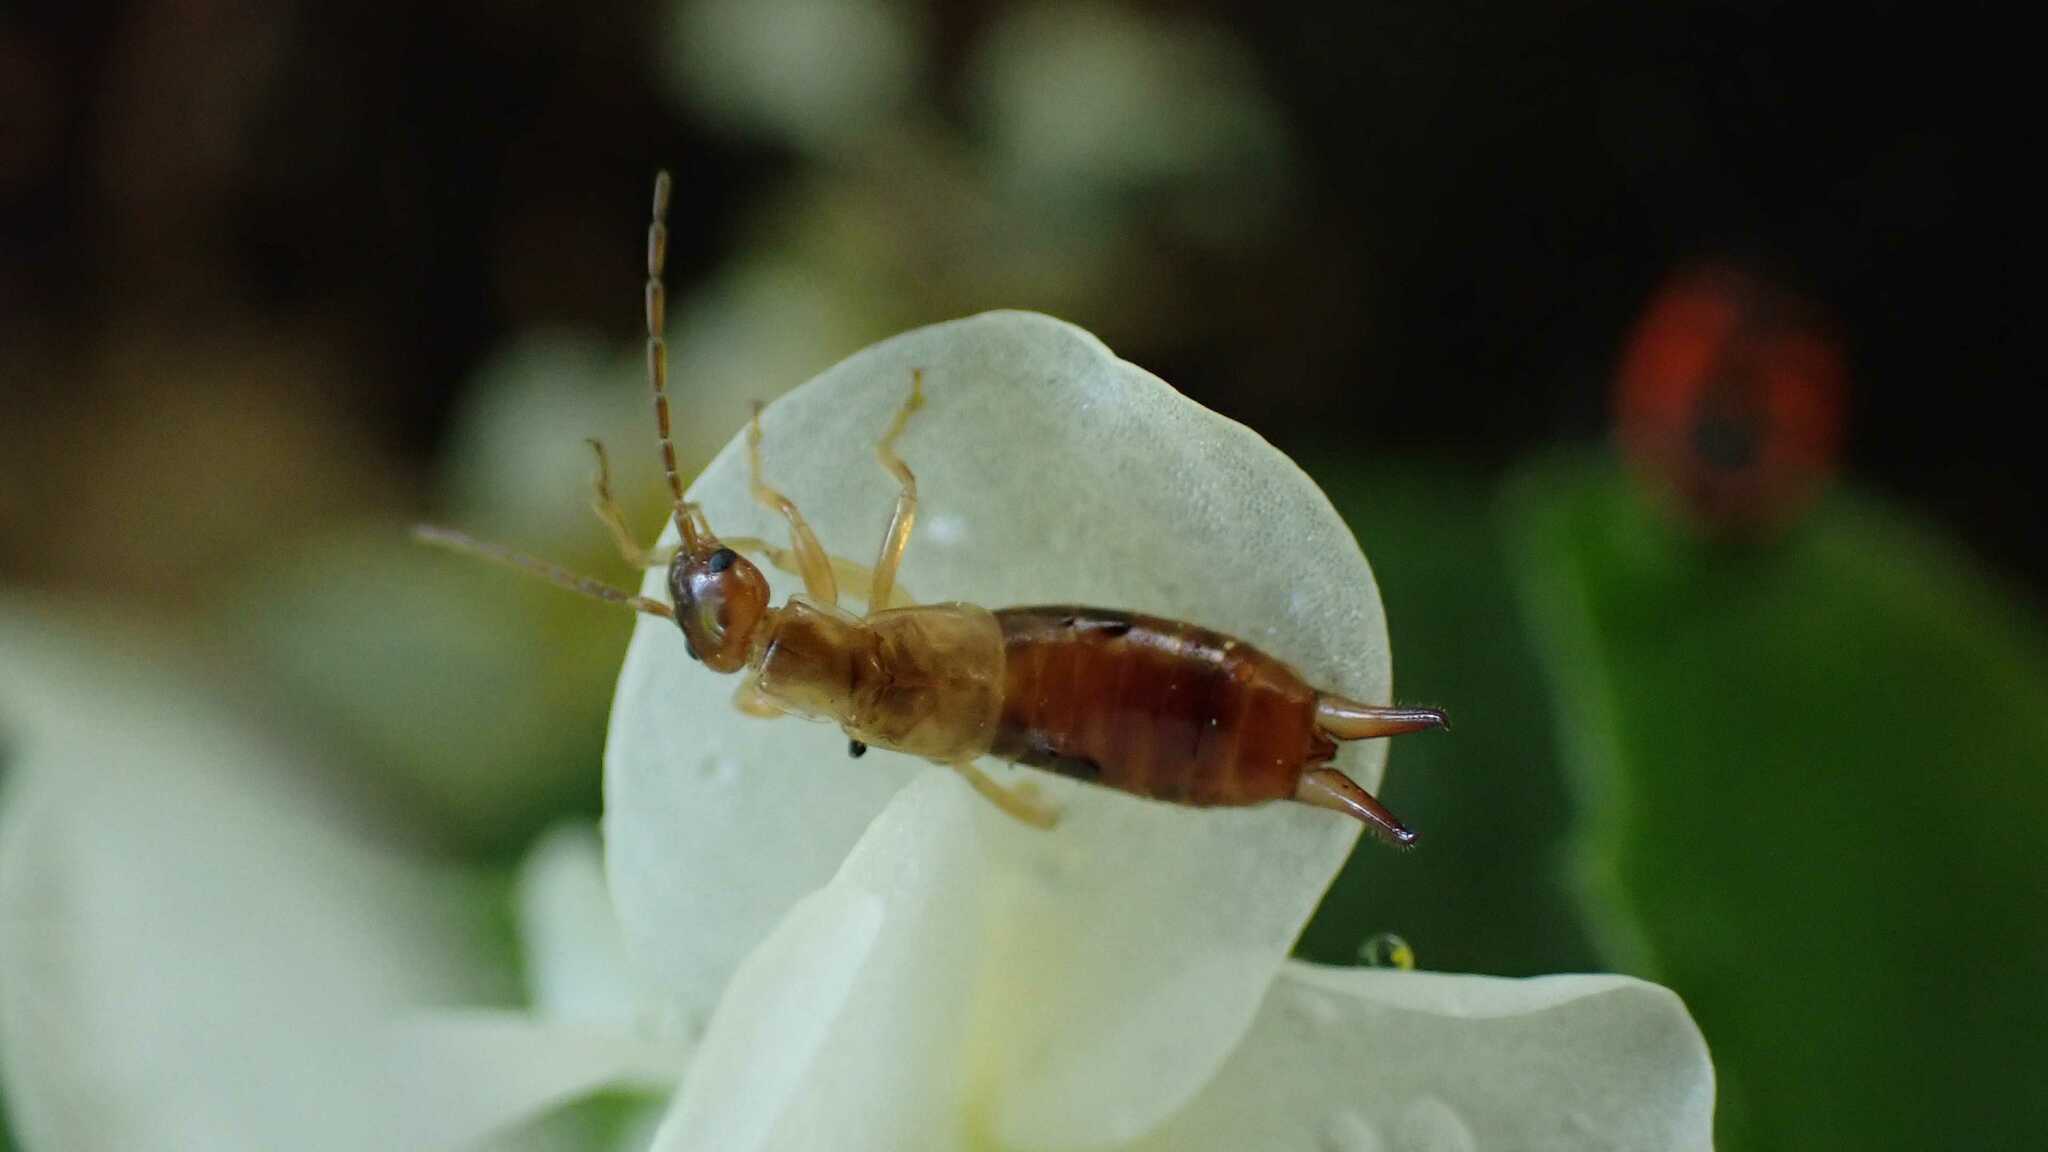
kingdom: Animalia
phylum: Arthropoda
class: Insecta
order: Dermaptera
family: Forficulidae
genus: Apterygida
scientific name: Apterygida albipennis
